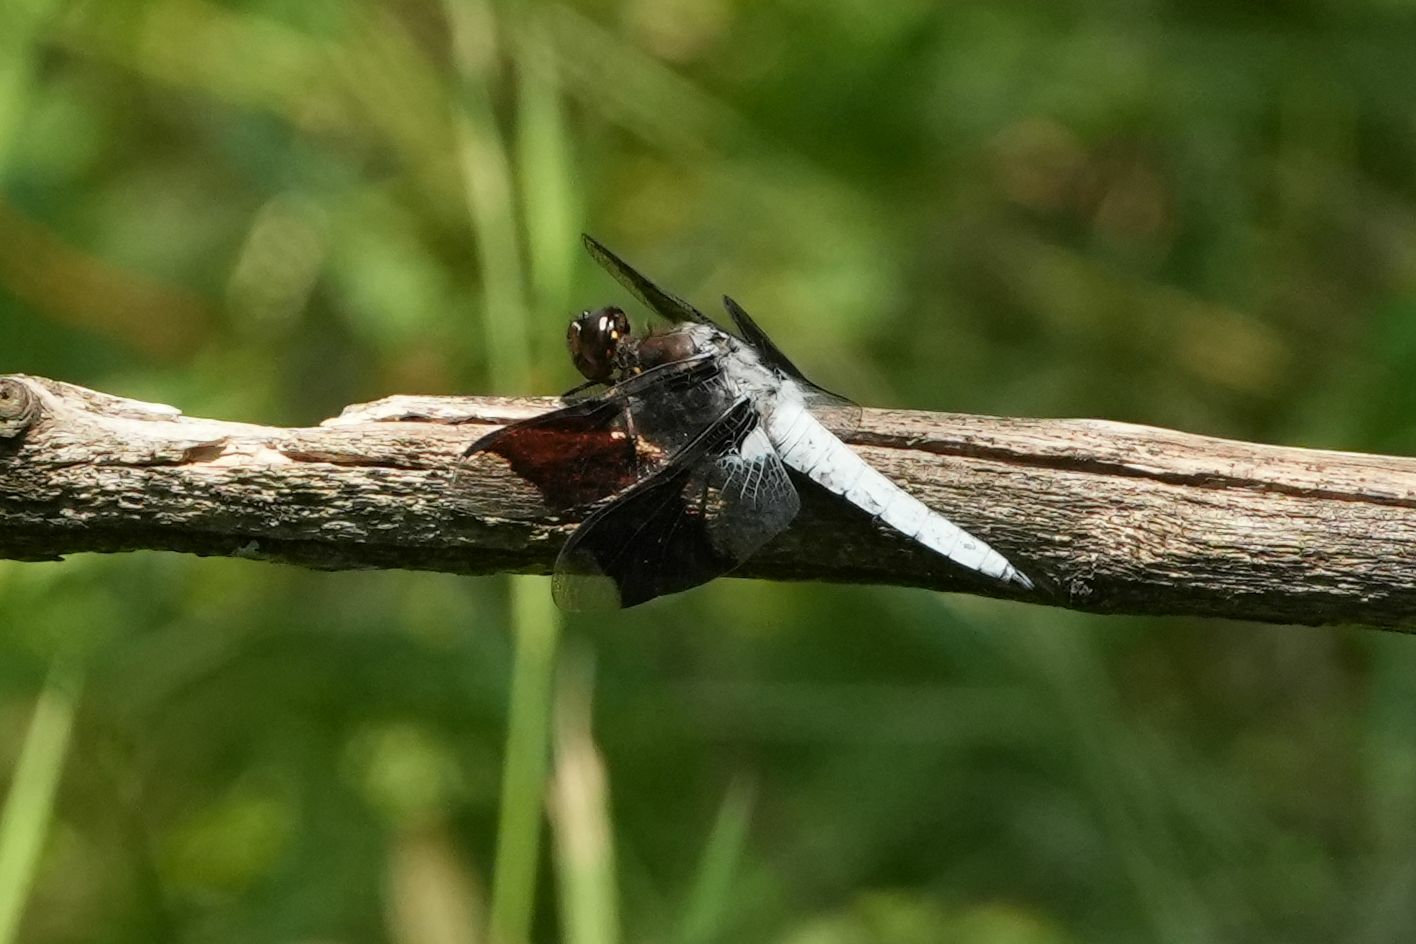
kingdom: Animalia
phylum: Arthropoda
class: Insecta
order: Odonata
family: Libellulidae
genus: Plathemis
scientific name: Plathemis lydia
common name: Common whitetail
